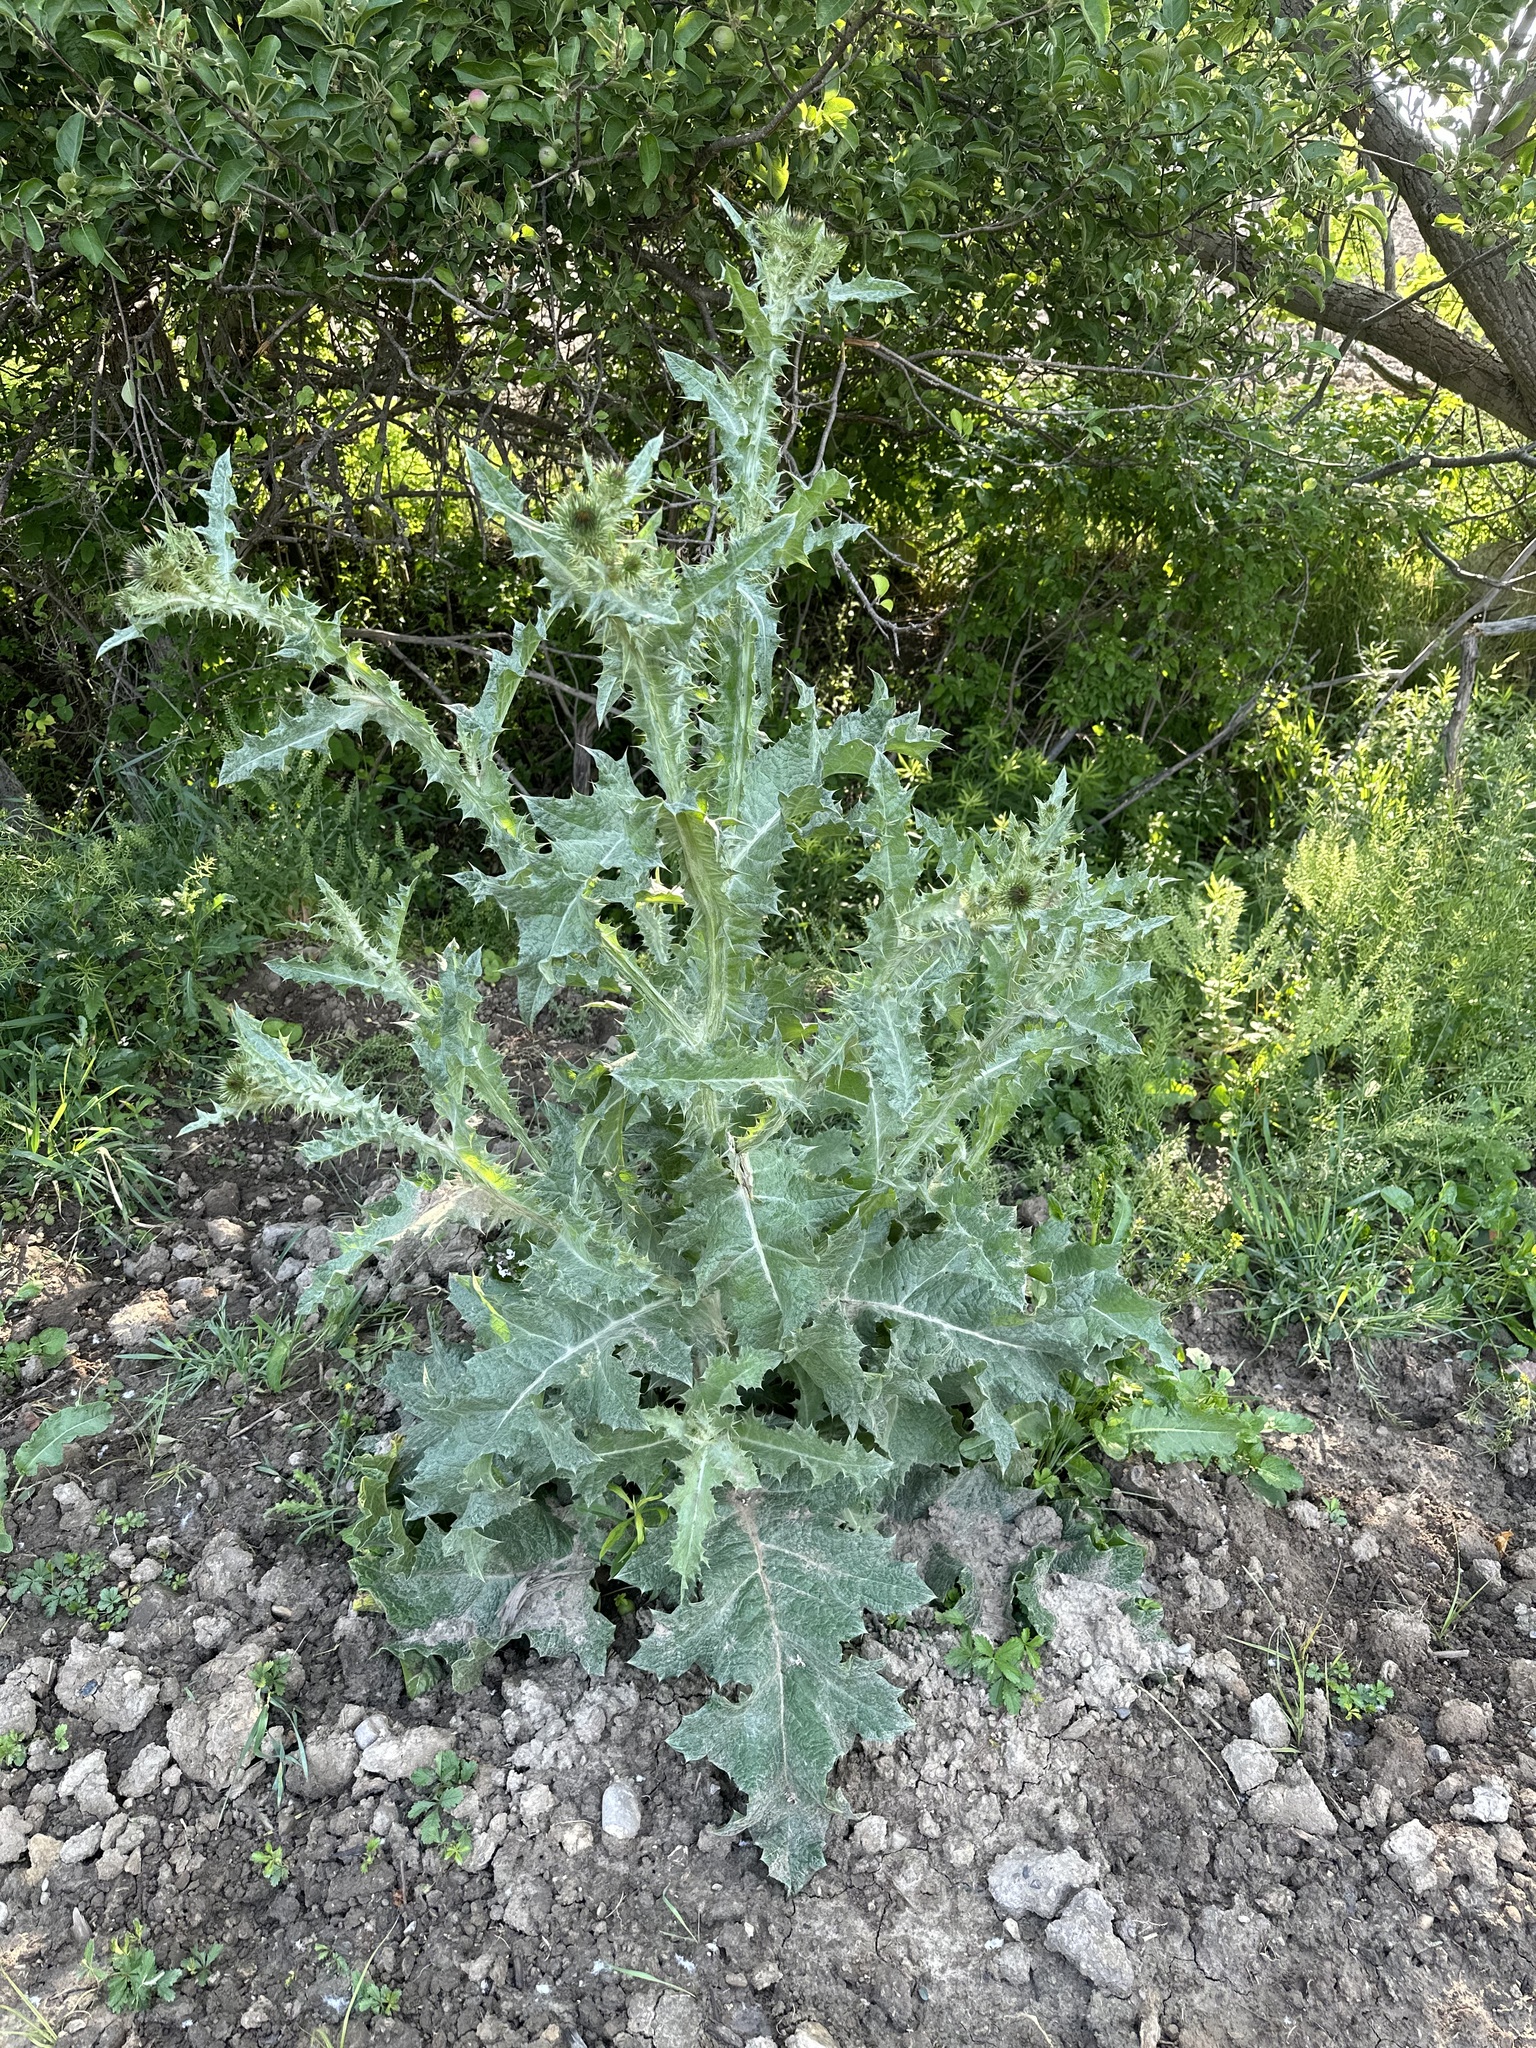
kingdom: Plantae
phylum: Tracheophyta
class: Magnoliopsida
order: Asterales
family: Asteraceae
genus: Onopordum
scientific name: Onopordum acanthium
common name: Scotch thistle
